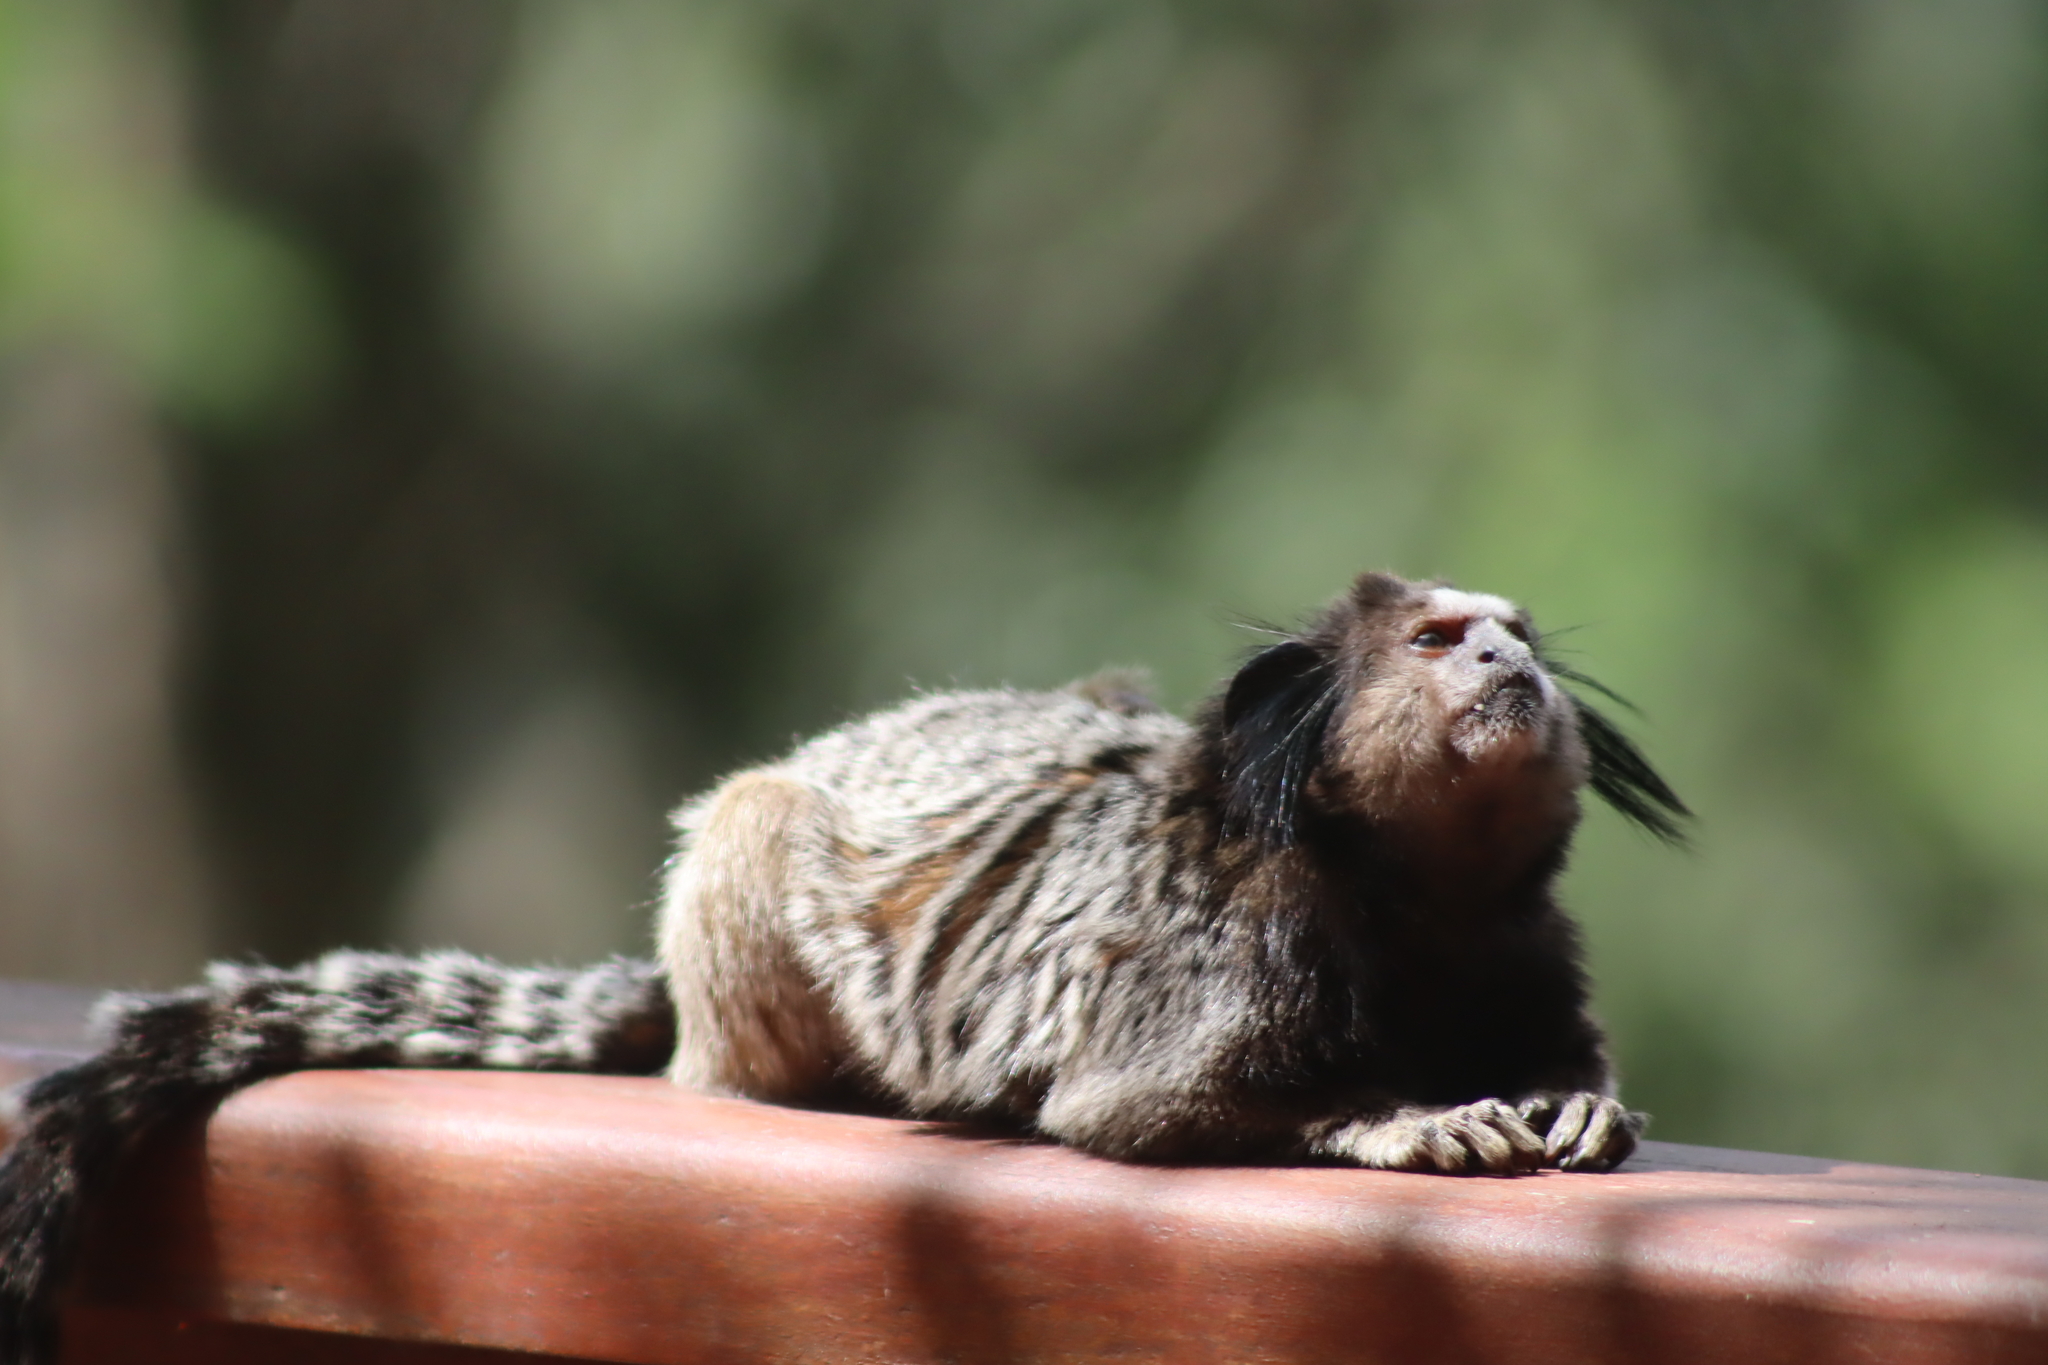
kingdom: Animalia
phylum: Chordata
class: Mammalia
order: Primates
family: Callitrichidae
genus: Callithrix
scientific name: Callithrix penicillata
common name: Black-tufted marmoset
